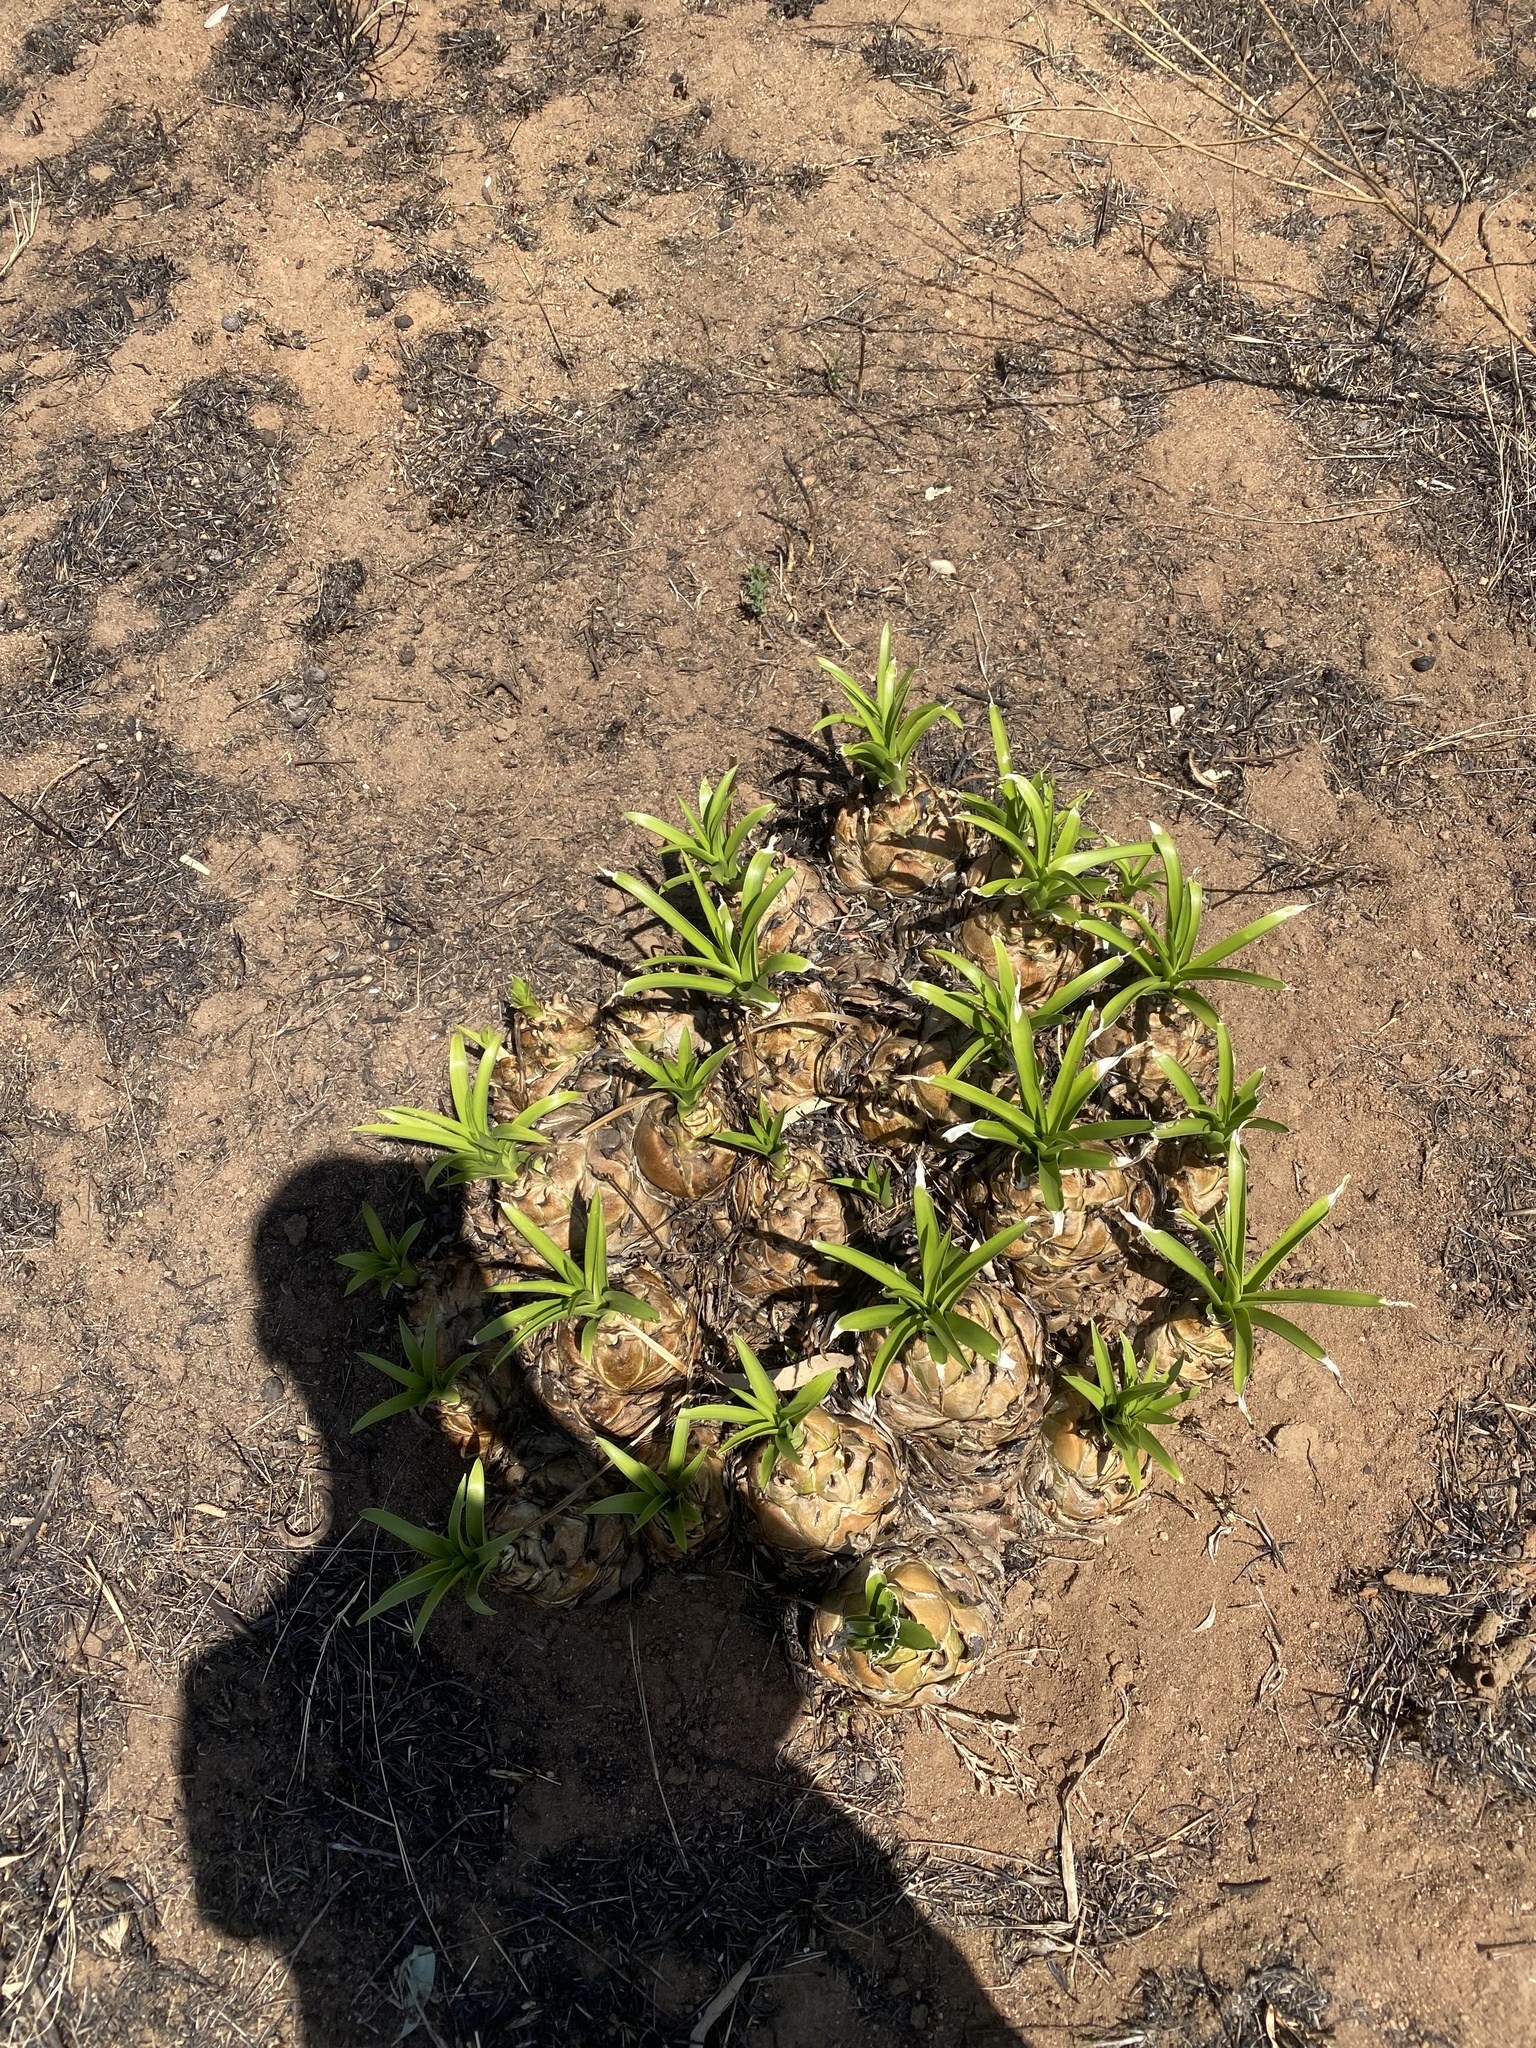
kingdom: Plantae
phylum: Tracheophyta
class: Liliopsida
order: Asparagales
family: Asparagaceae
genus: Drimia
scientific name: Drimia altissima
